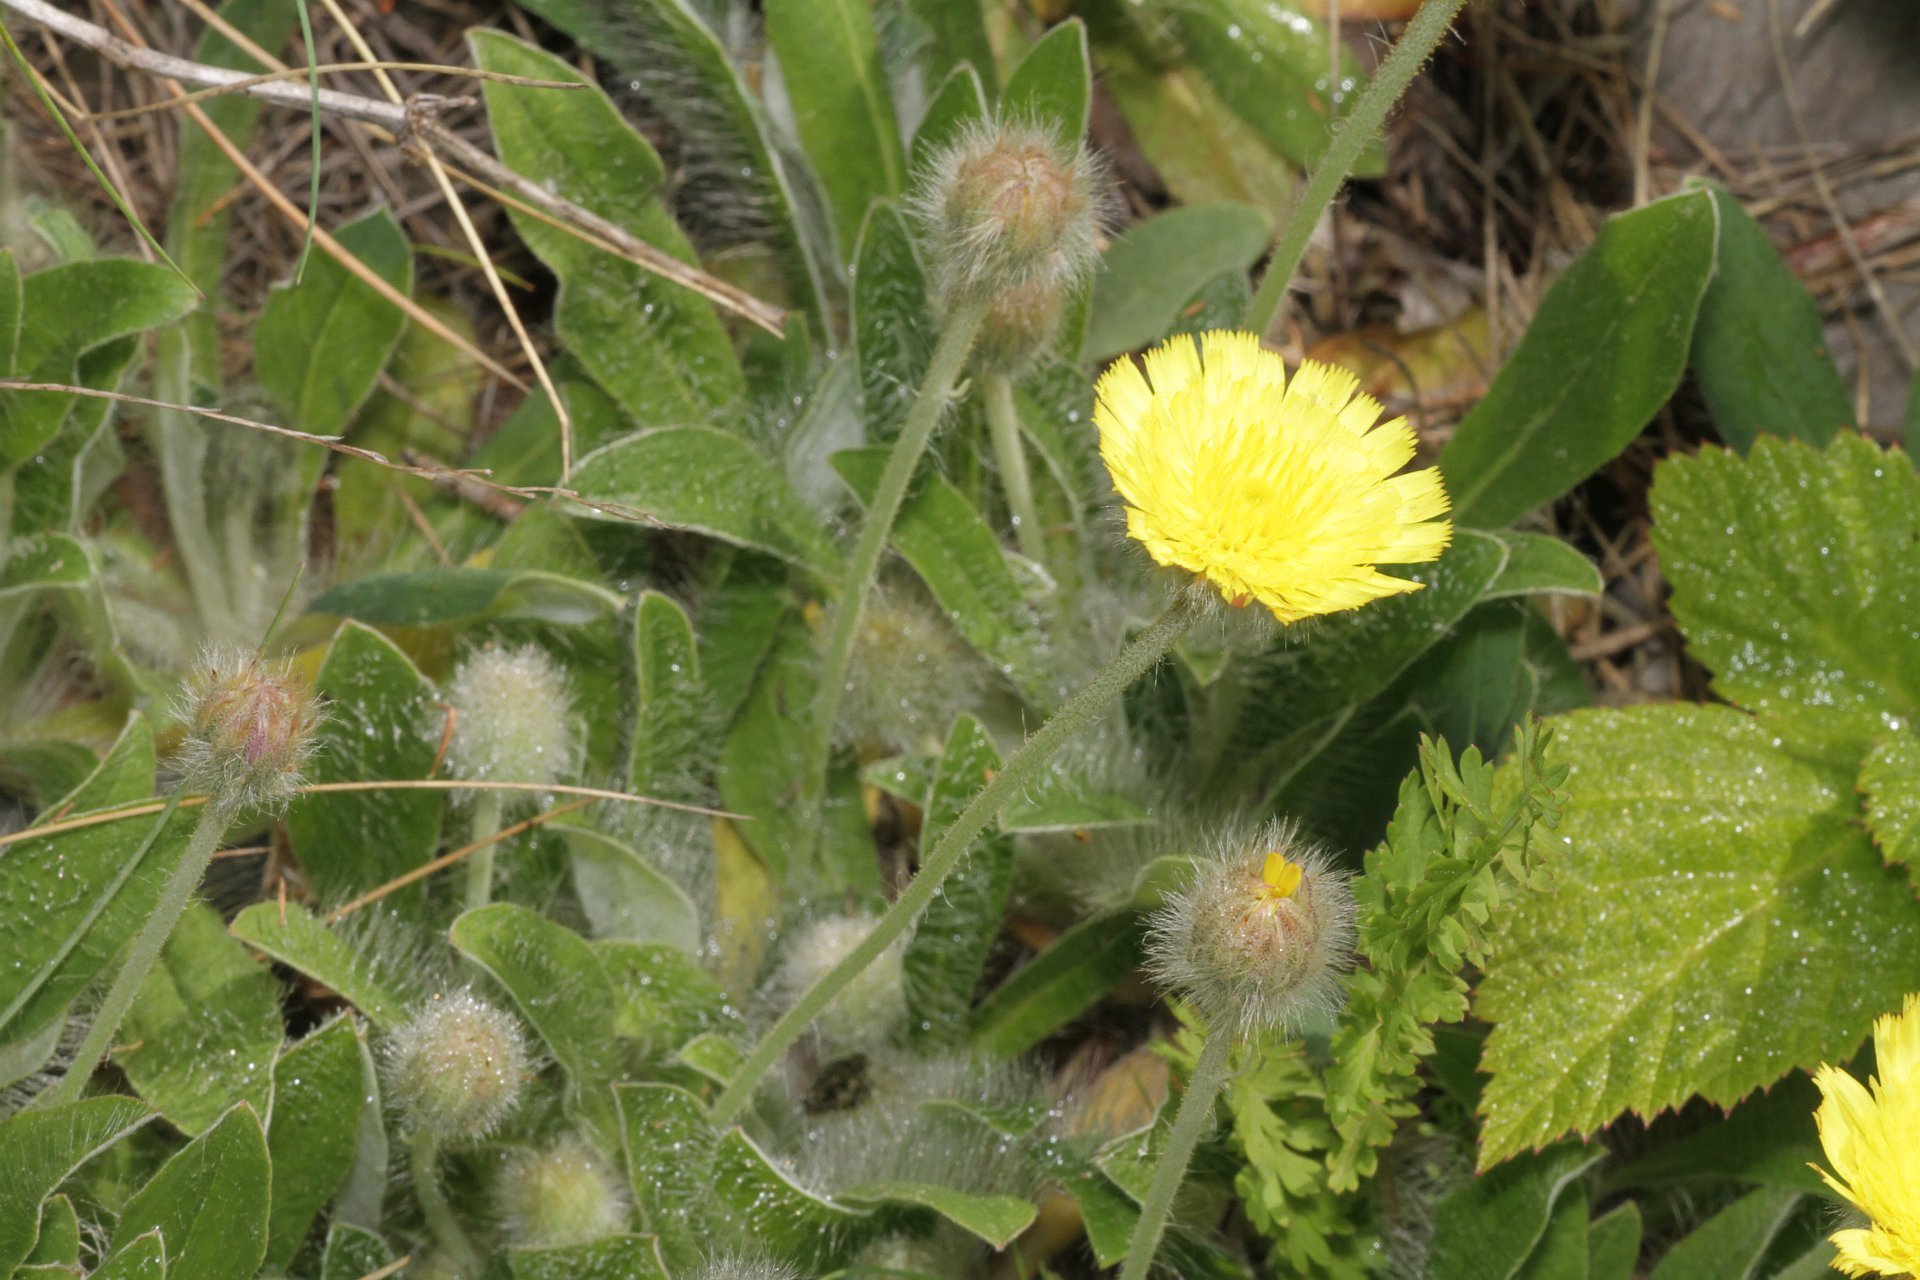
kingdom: Plantae
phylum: Tracheophyta
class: Magnoliopsida
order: Asterales
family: Asteraceae
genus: Pilosella
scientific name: Pilosella officinarum
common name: Mouse-ear hawkweed
